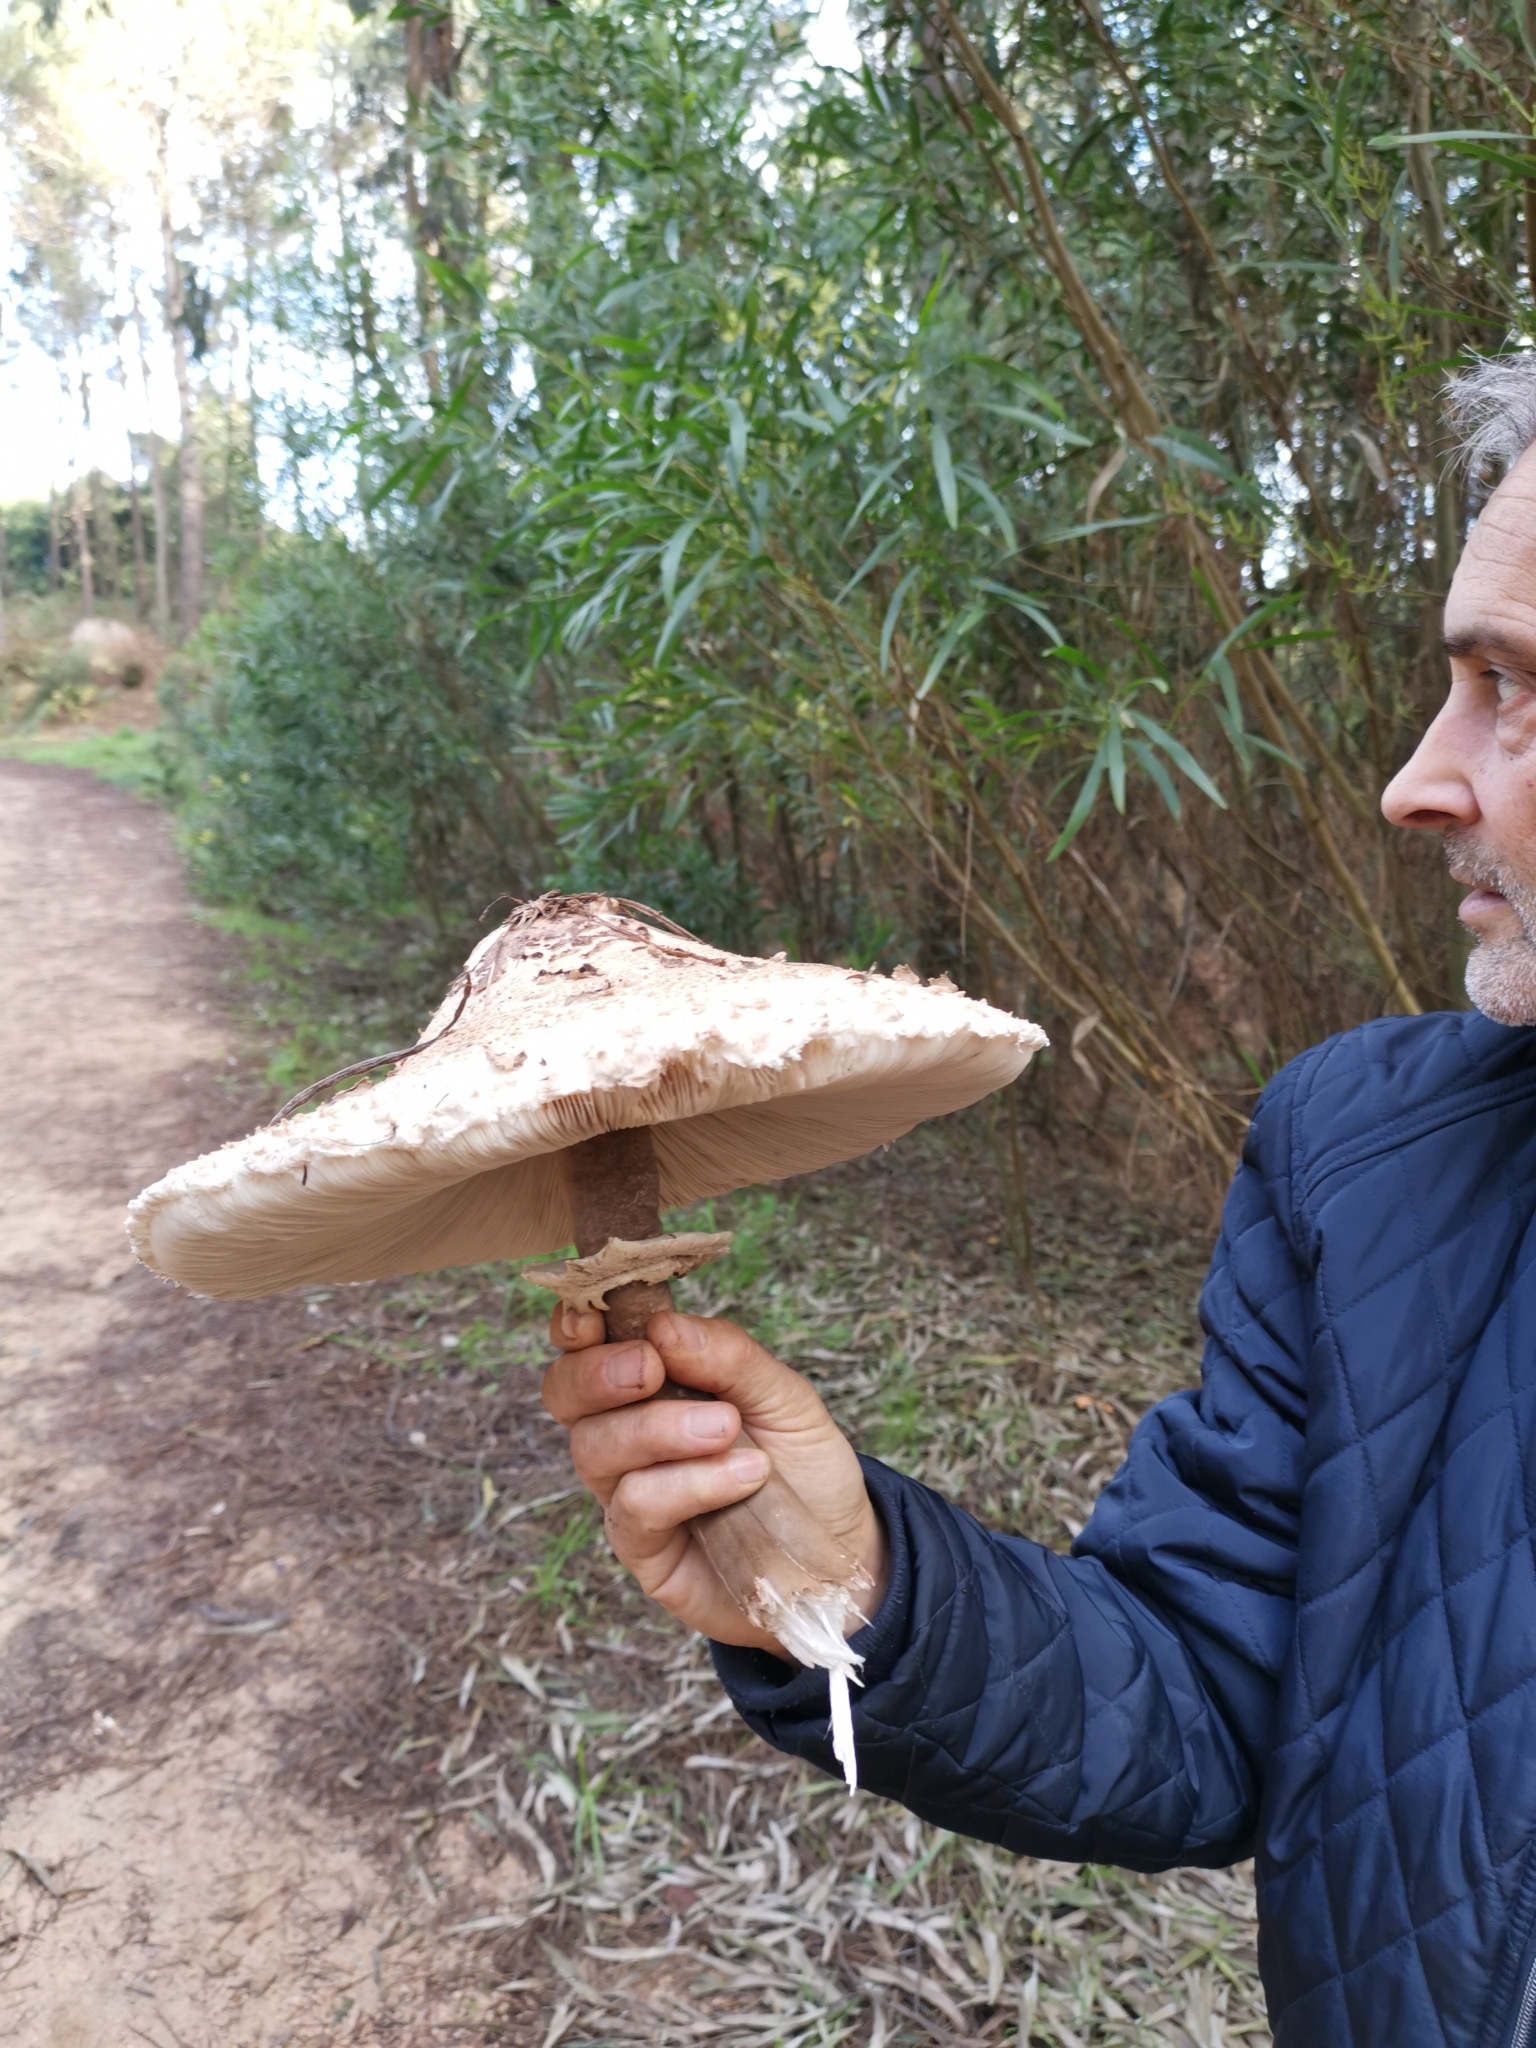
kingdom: Fungi
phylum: Basidiomycota
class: Agaricomycetes
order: Agaricales
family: Agaricaceae
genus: Macrolepiota
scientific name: Macrolepiota procera
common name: Parasol
